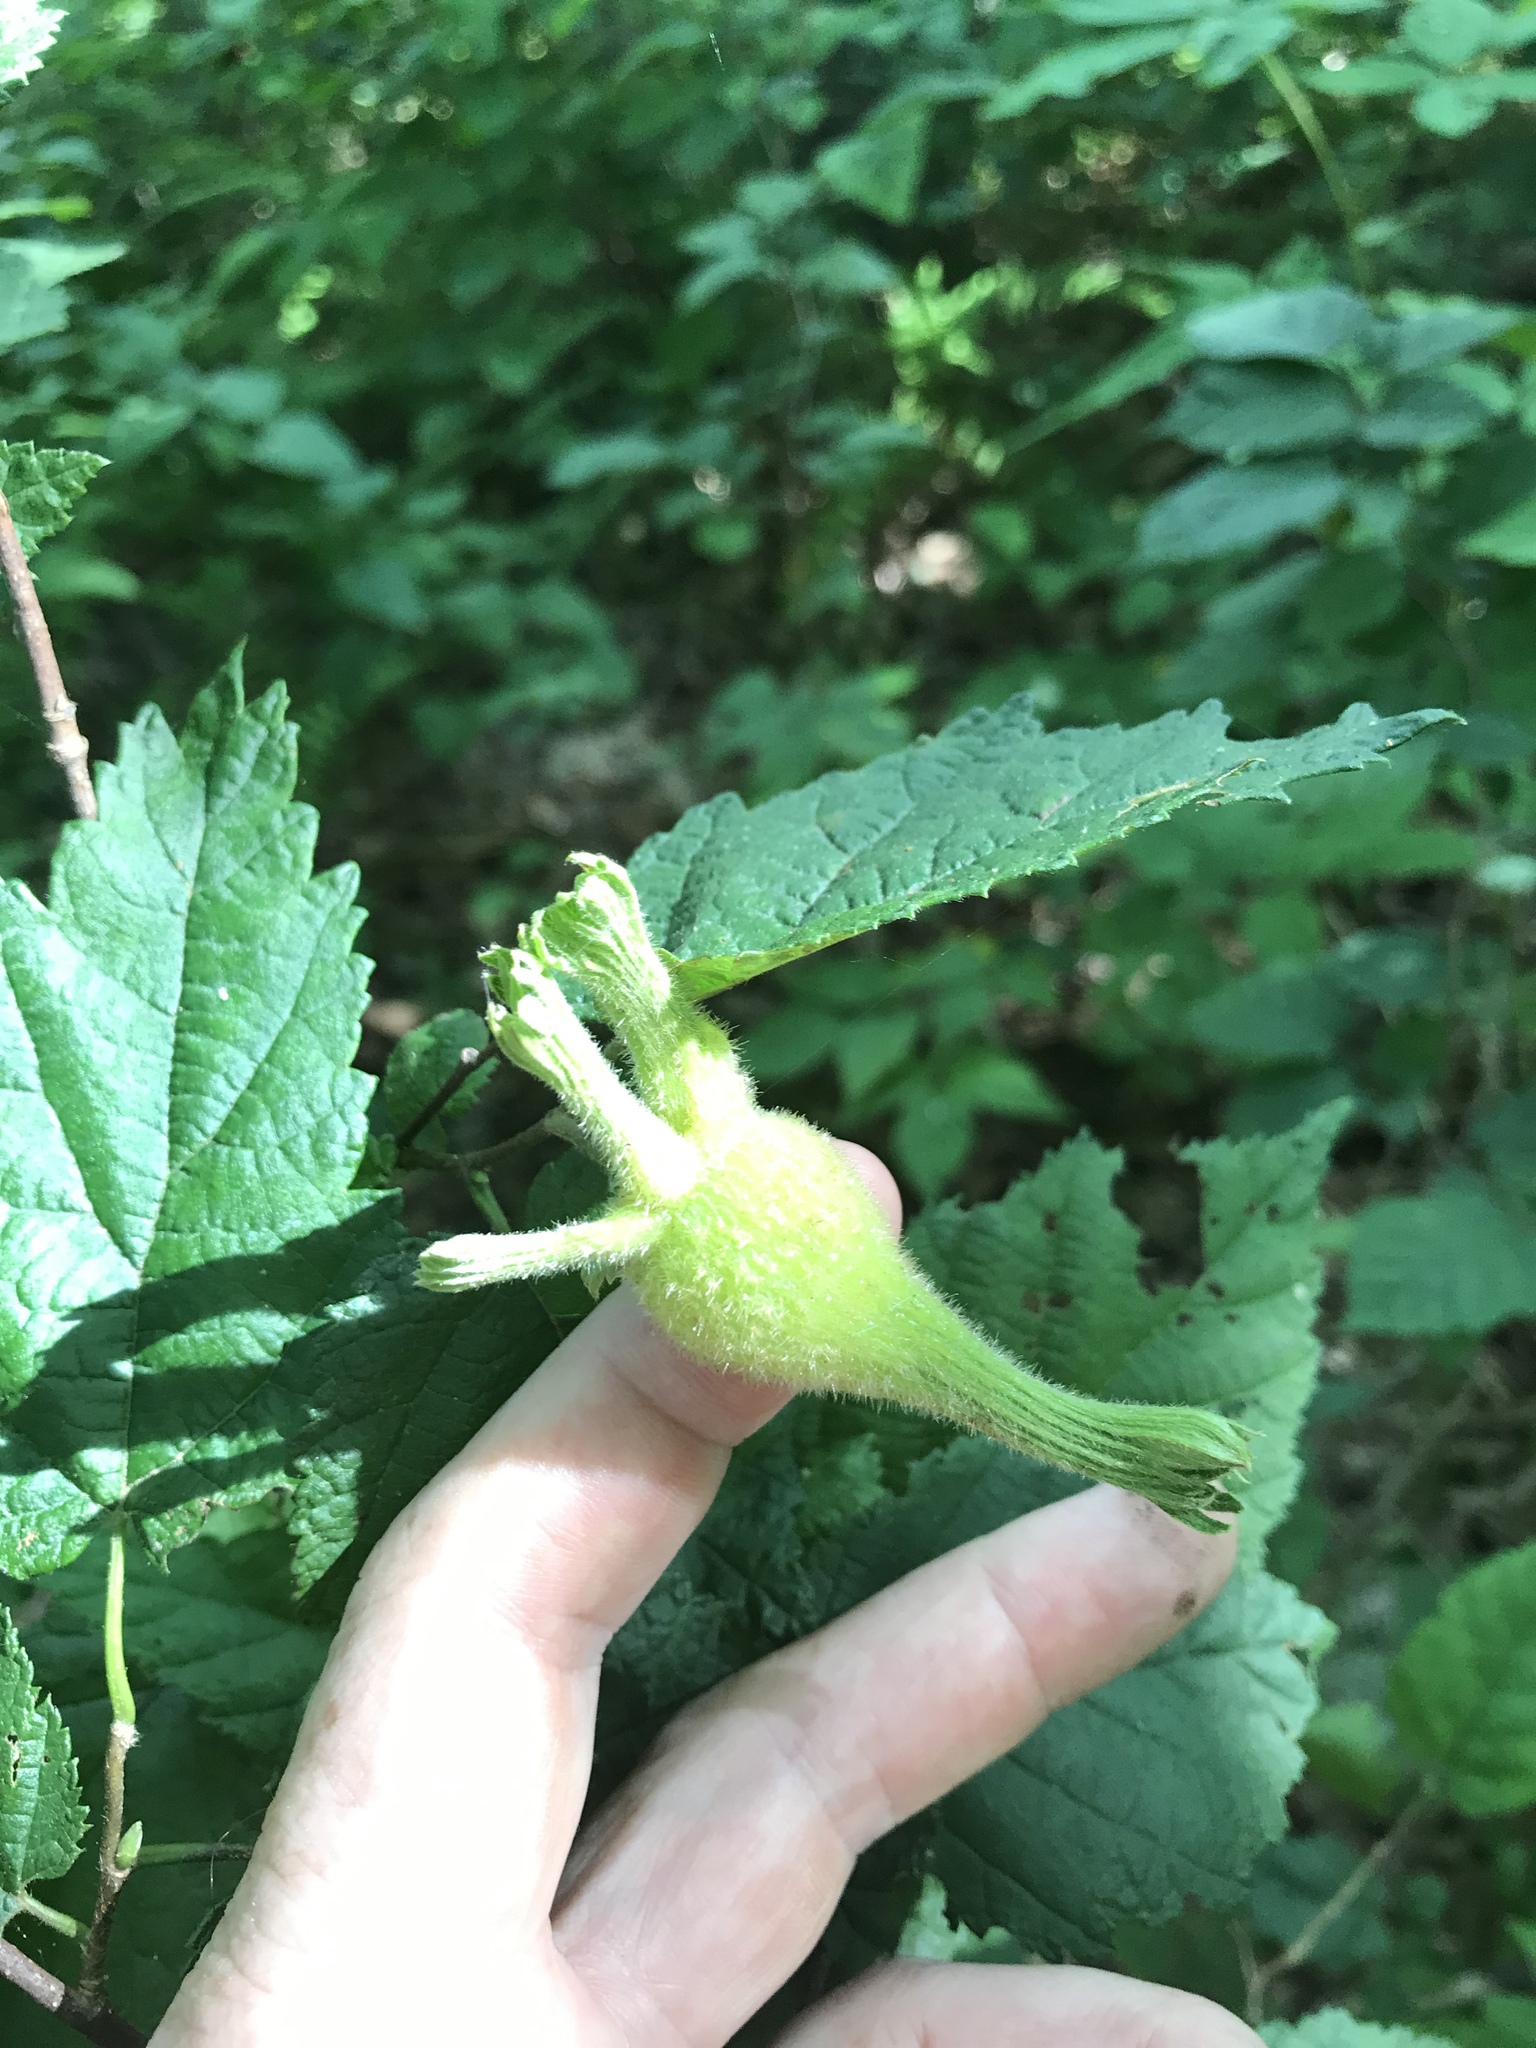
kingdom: Plantae
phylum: Tracheophyta
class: Magnoliopsida
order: Fagales
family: Betulaceae
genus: Corylus
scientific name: Corylus cornuta
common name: Beaked hazel
